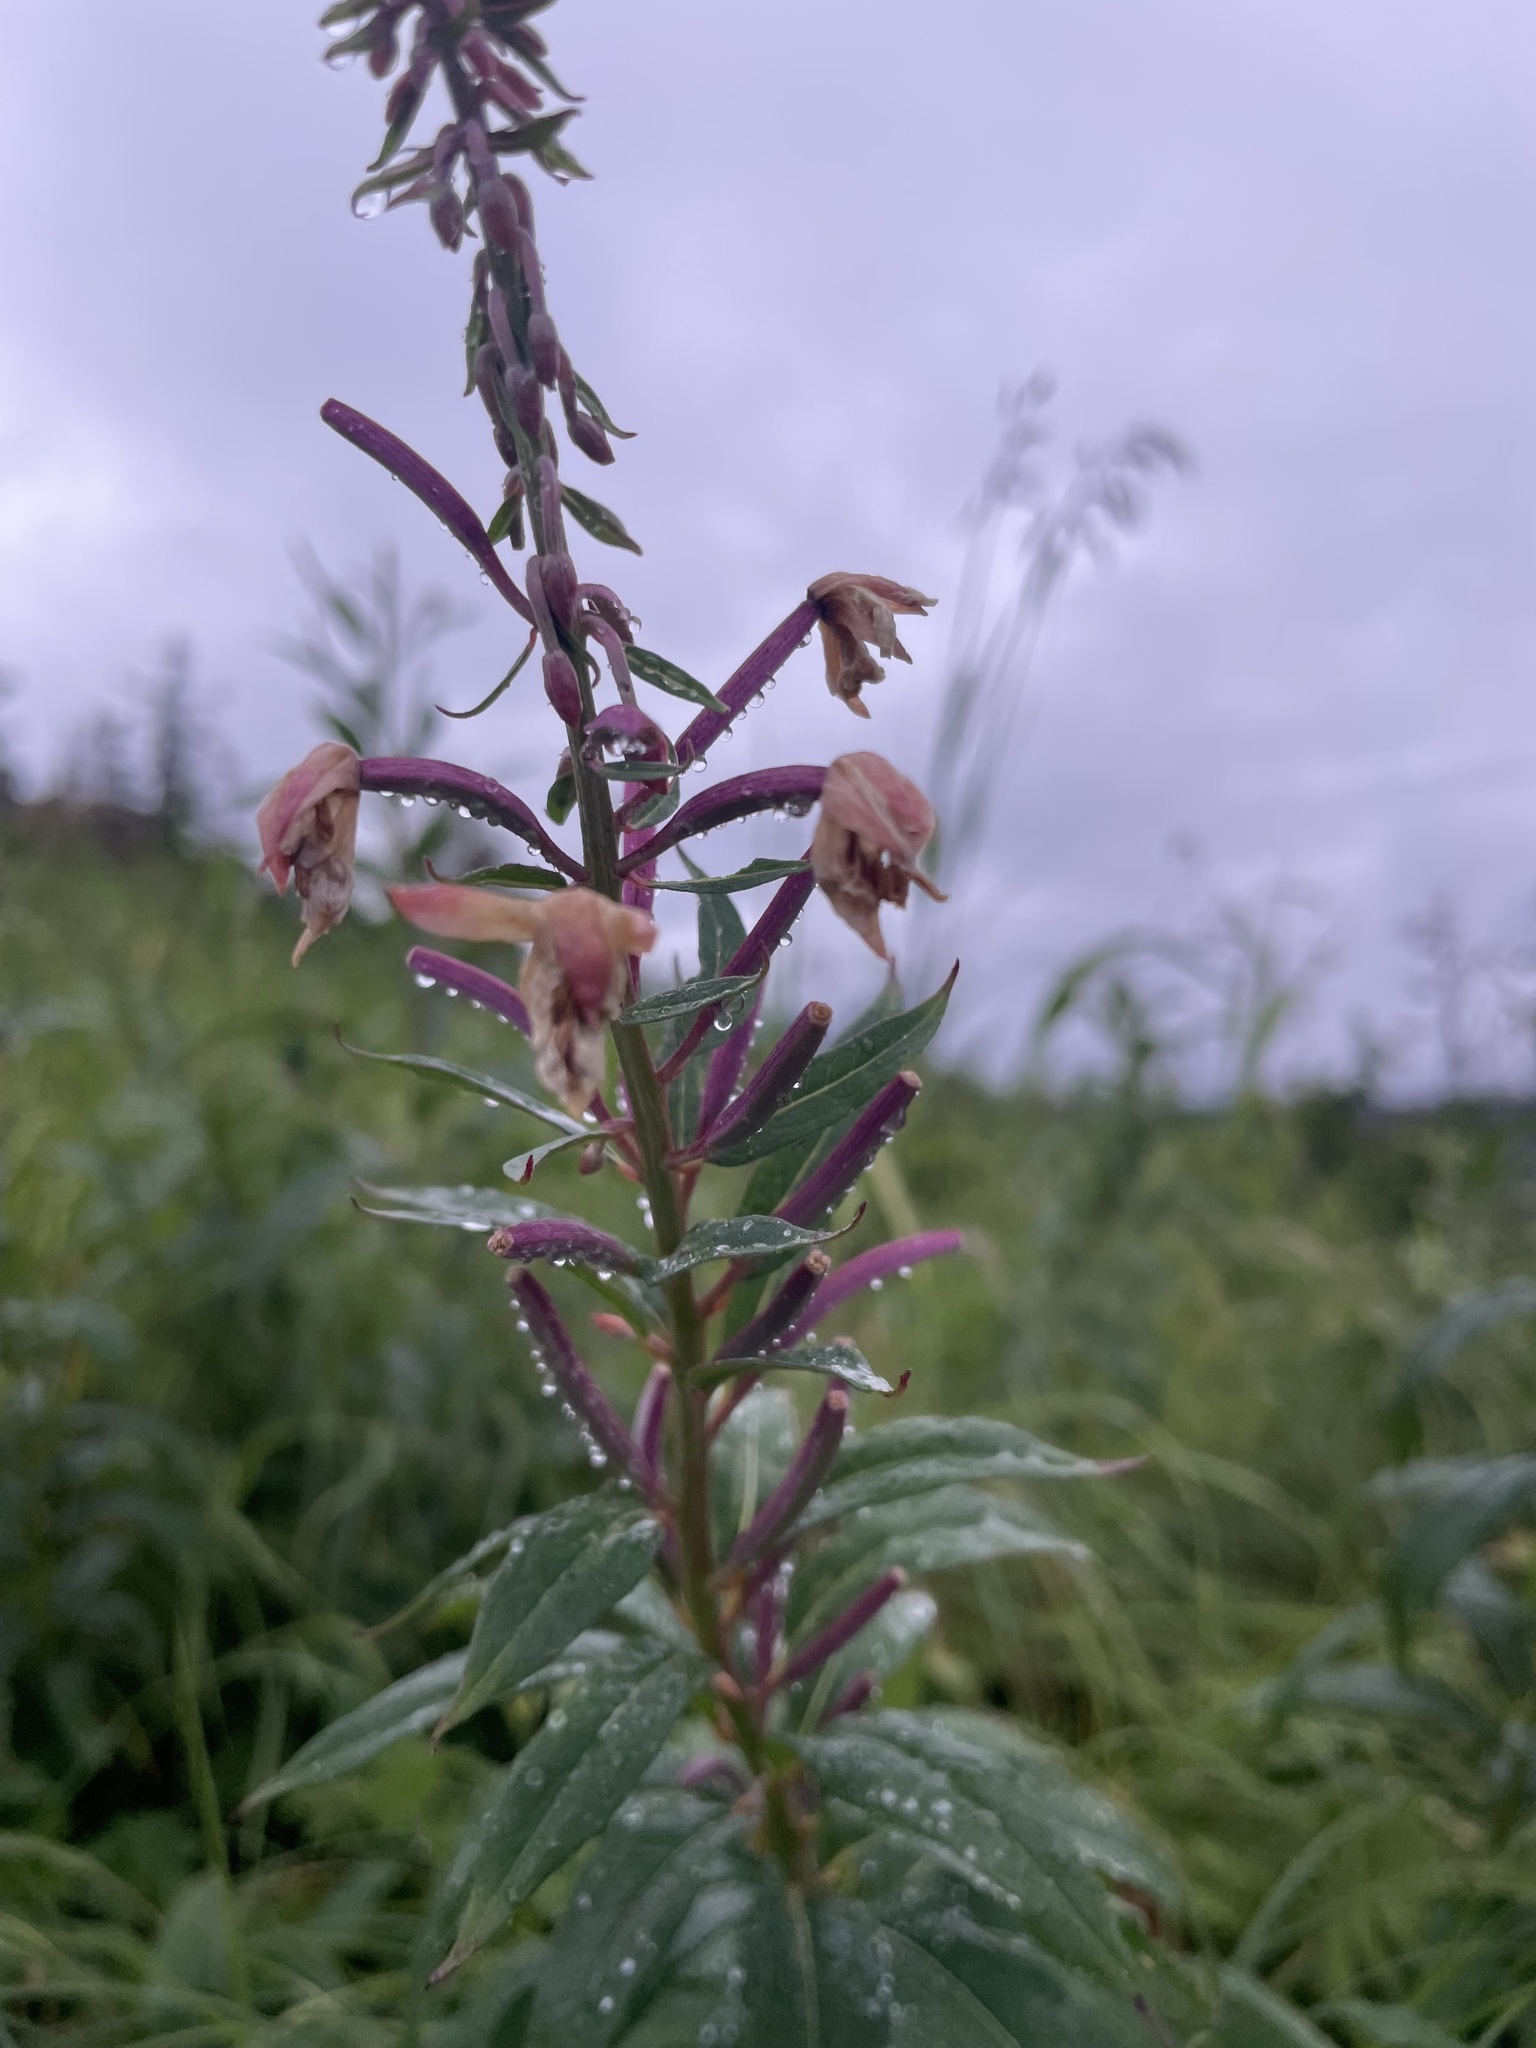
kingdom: Plantae
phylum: Tracheophyta
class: Magnoliopsida
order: Myrtales
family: Onagraceae
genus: Chamaenerion
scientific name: Chamaenerion angustifolium
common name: Fireweed
